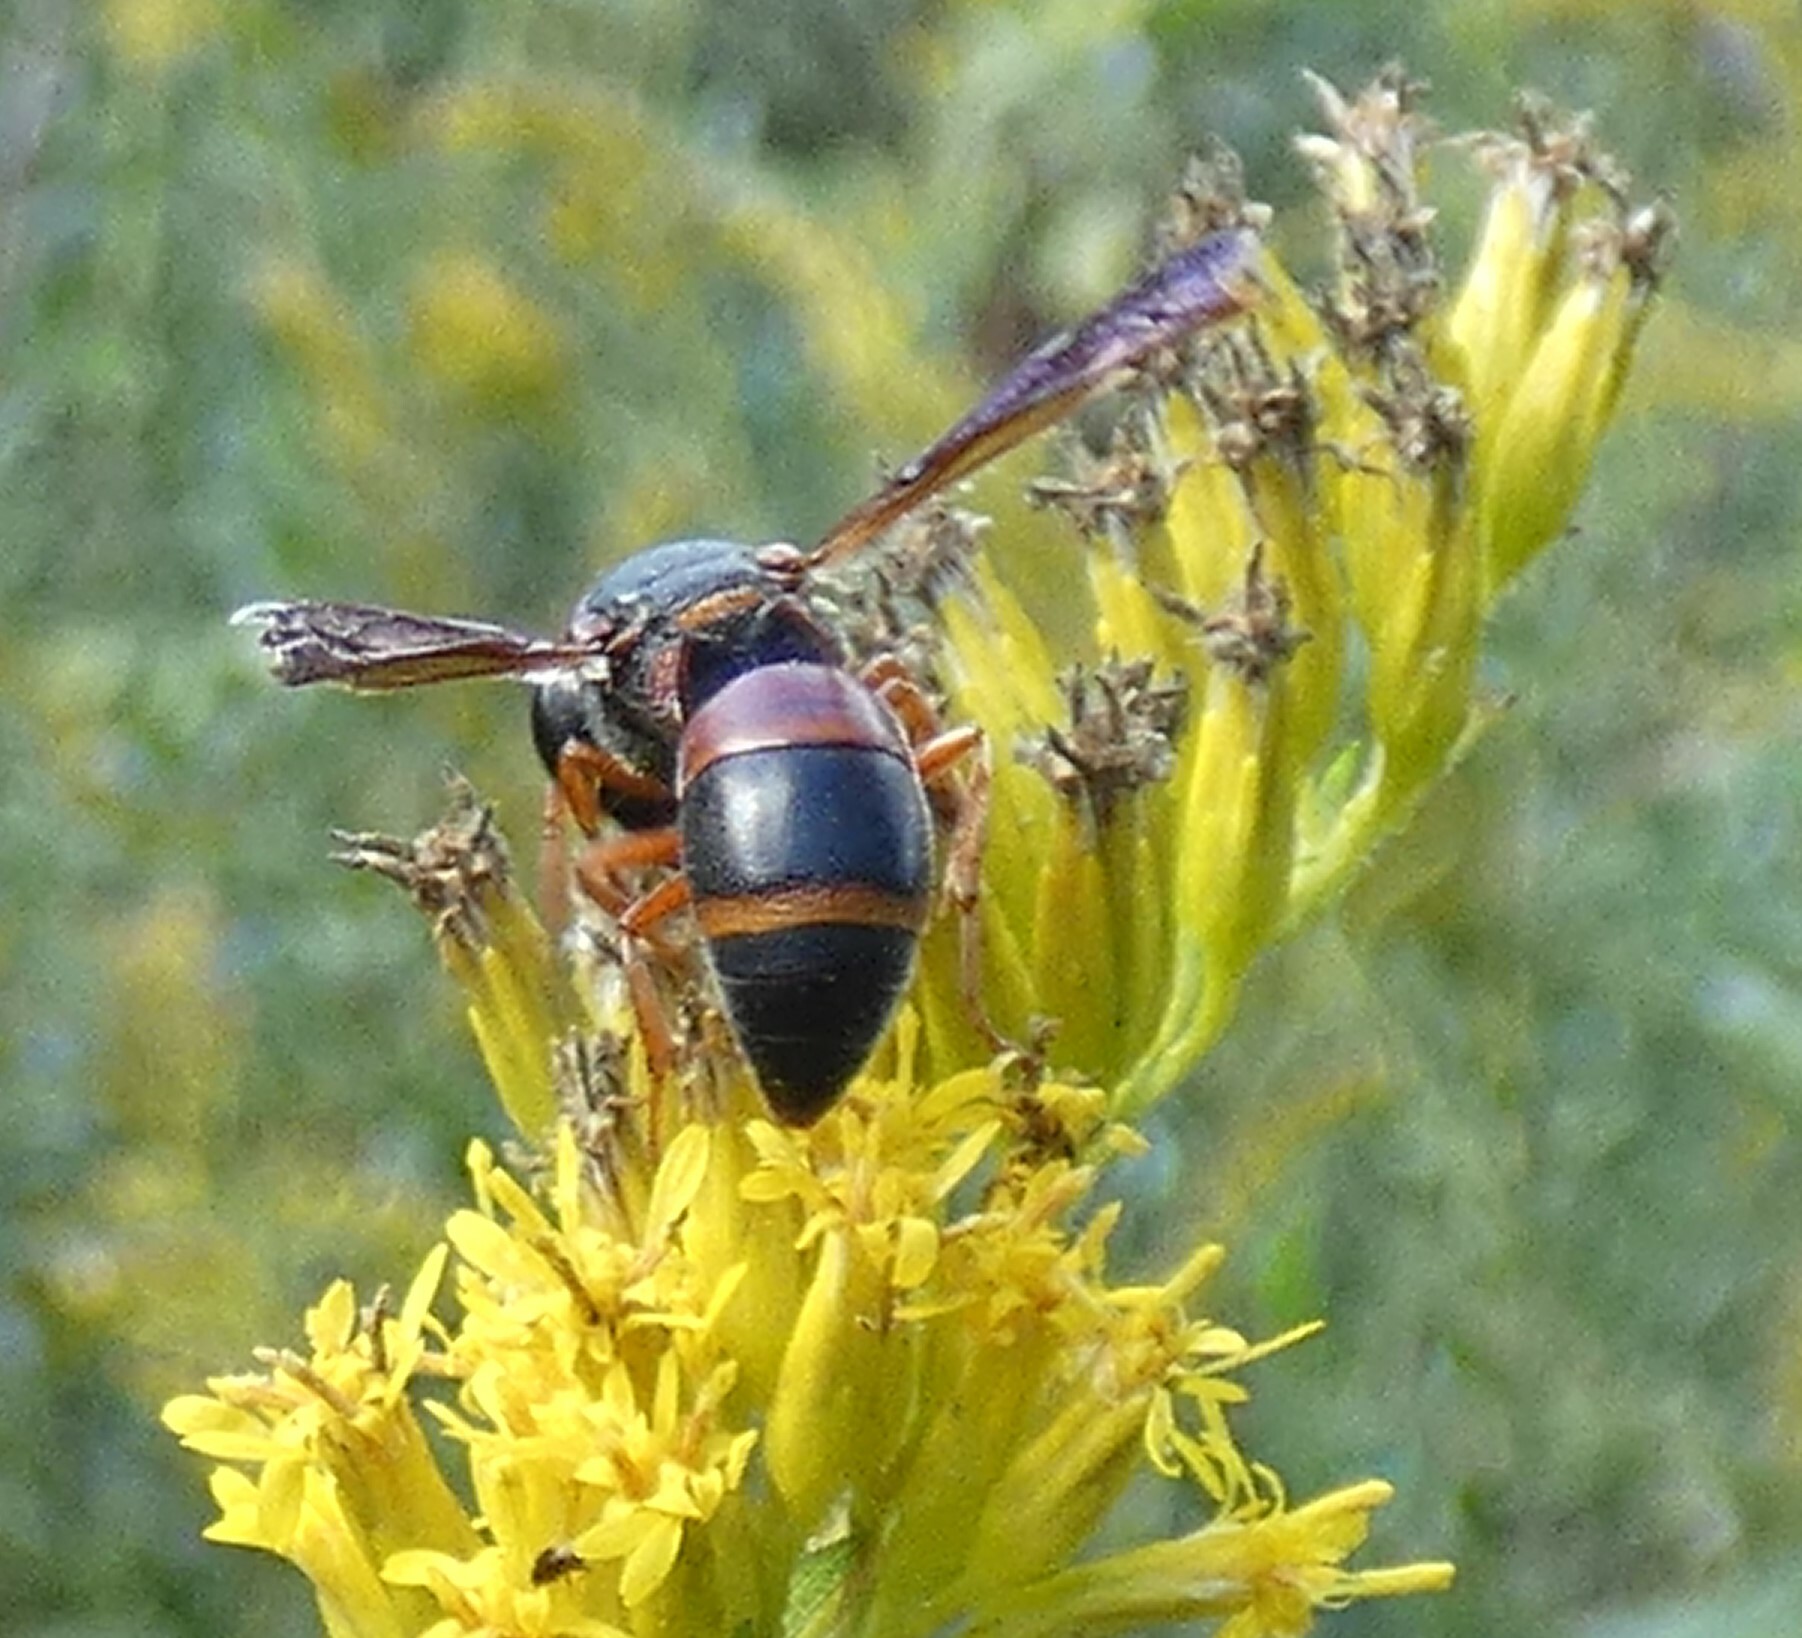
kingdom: Animalia
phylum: Arthropoda
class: Insecta
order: Hymenoptera
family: Eumenidae
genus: Pachodynerus
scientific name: Pachodynerus erynnis
